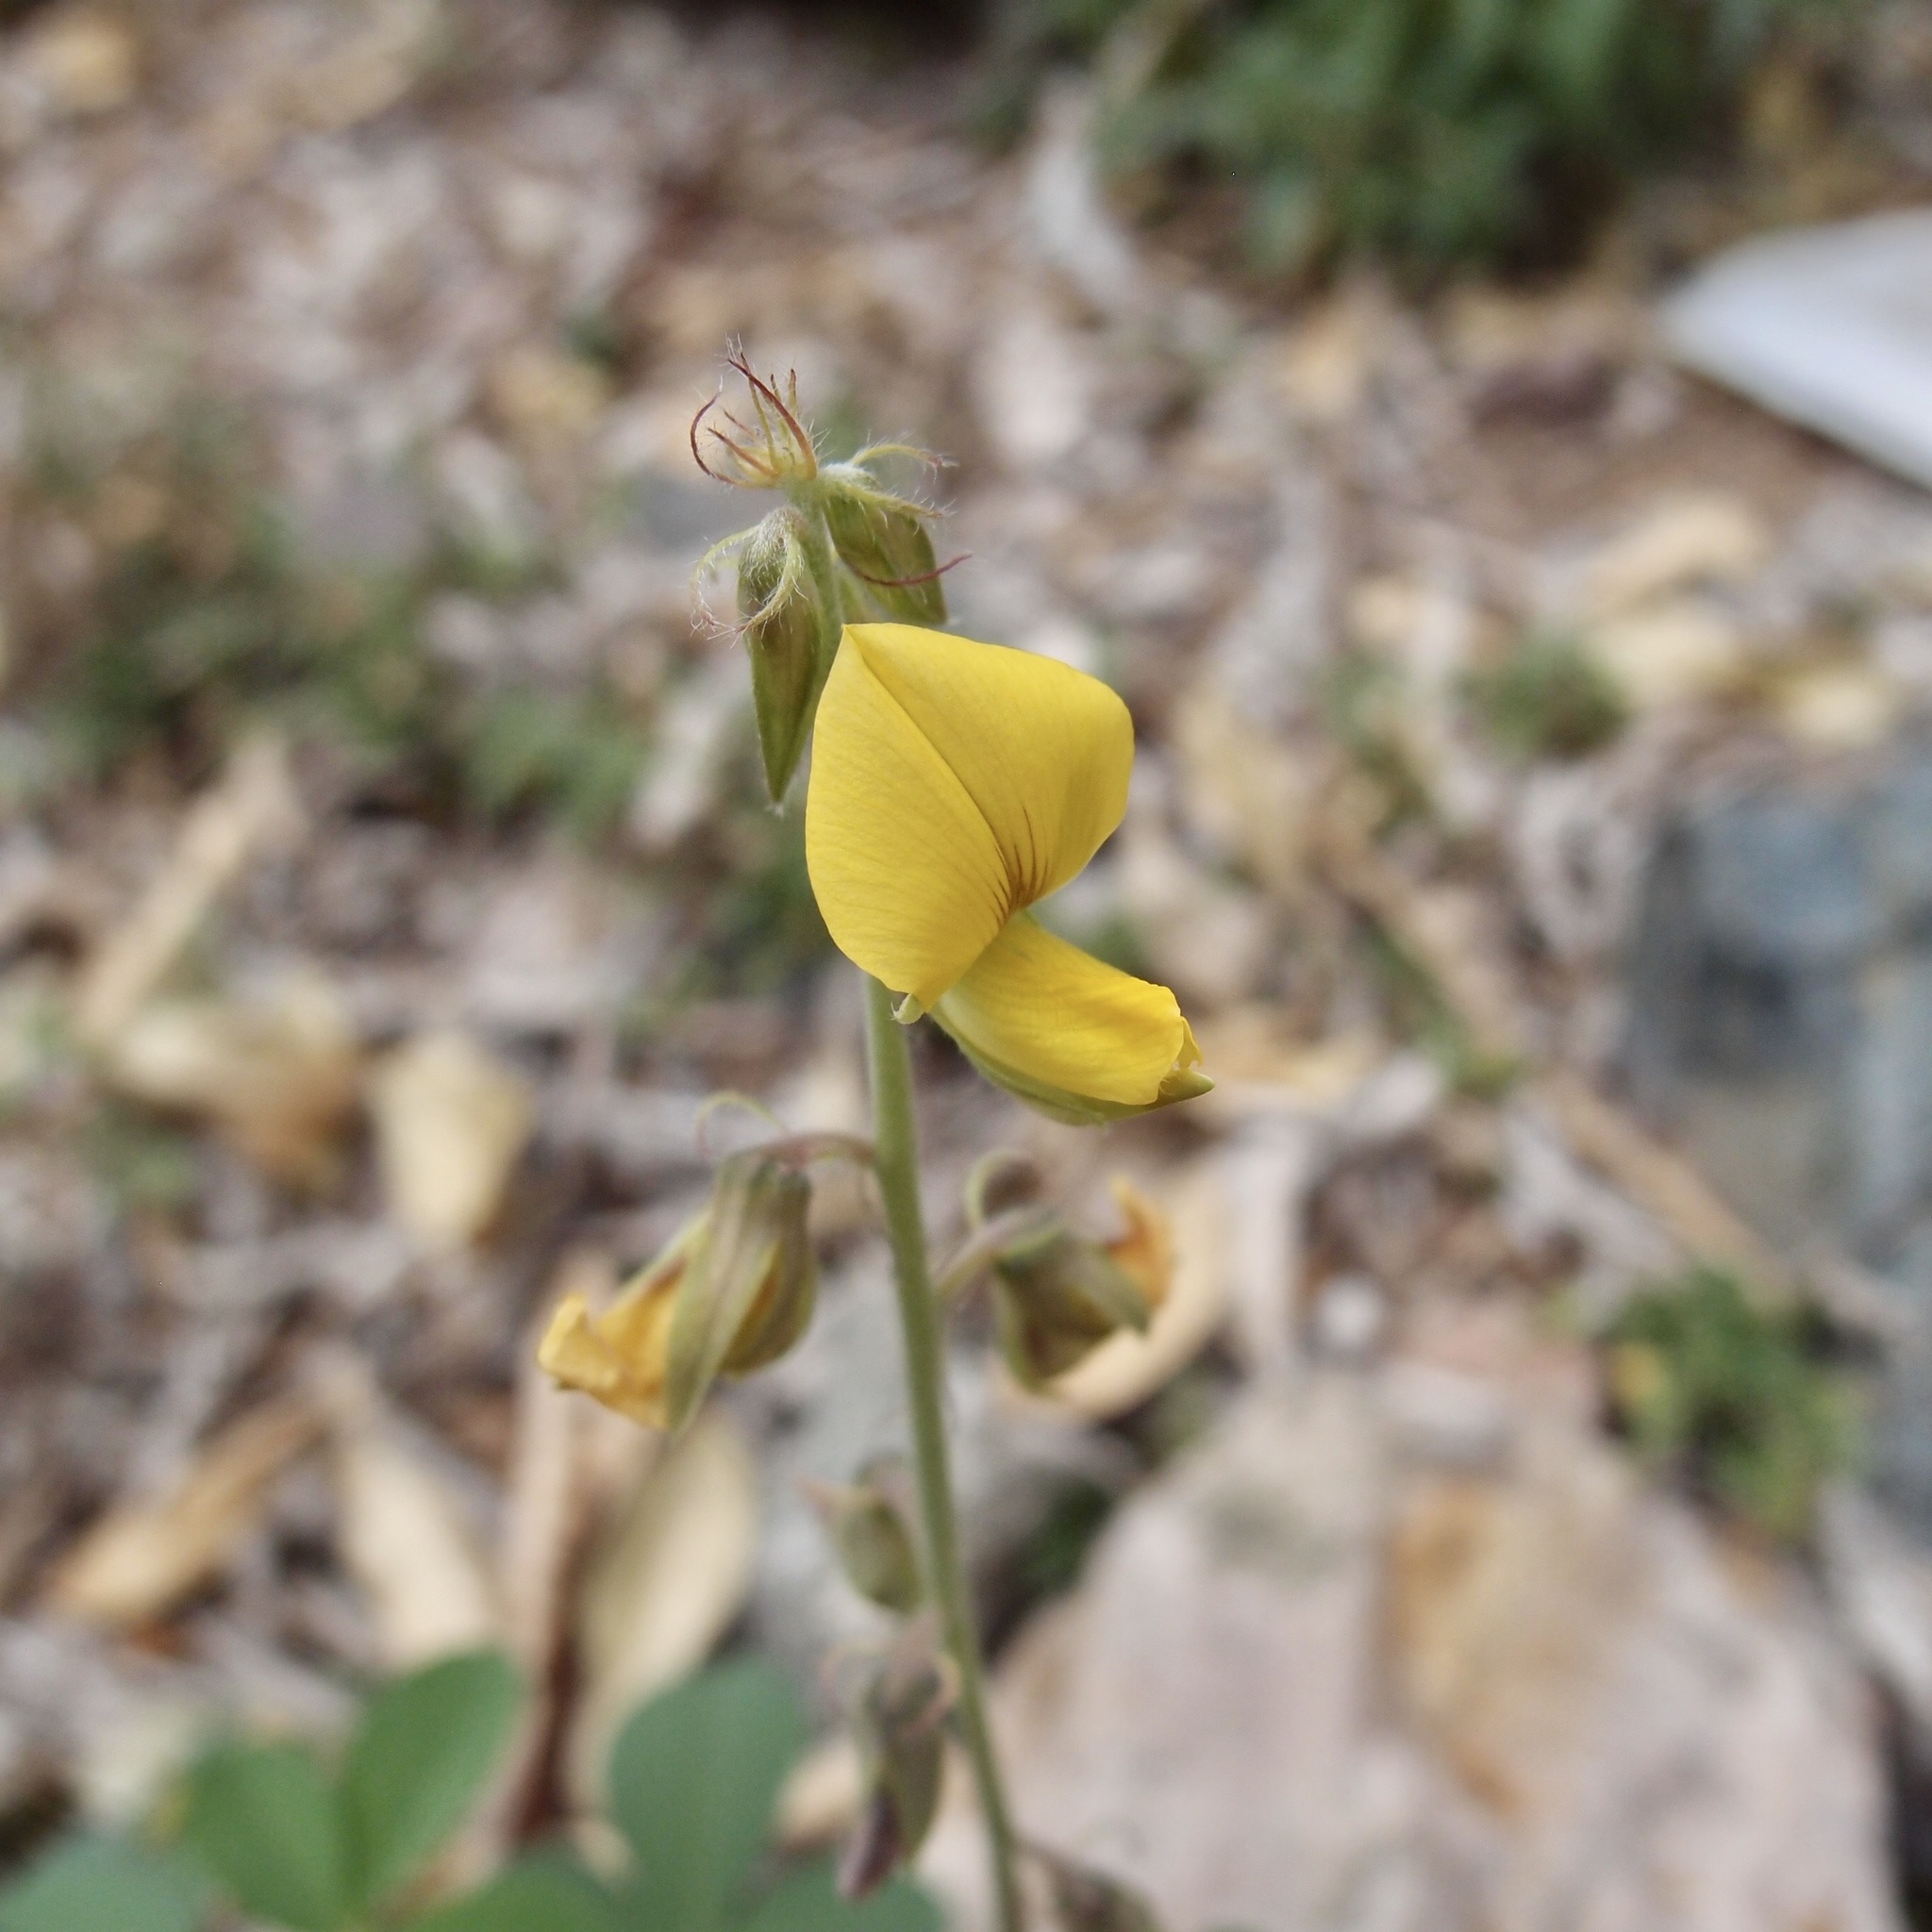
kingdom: Plantae
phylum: Tracheophyta
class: Magnoliopsida
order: Fabales
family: Fabaceae
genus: Crotalaria
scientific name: Crotalaria incana
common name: Shakeshake
